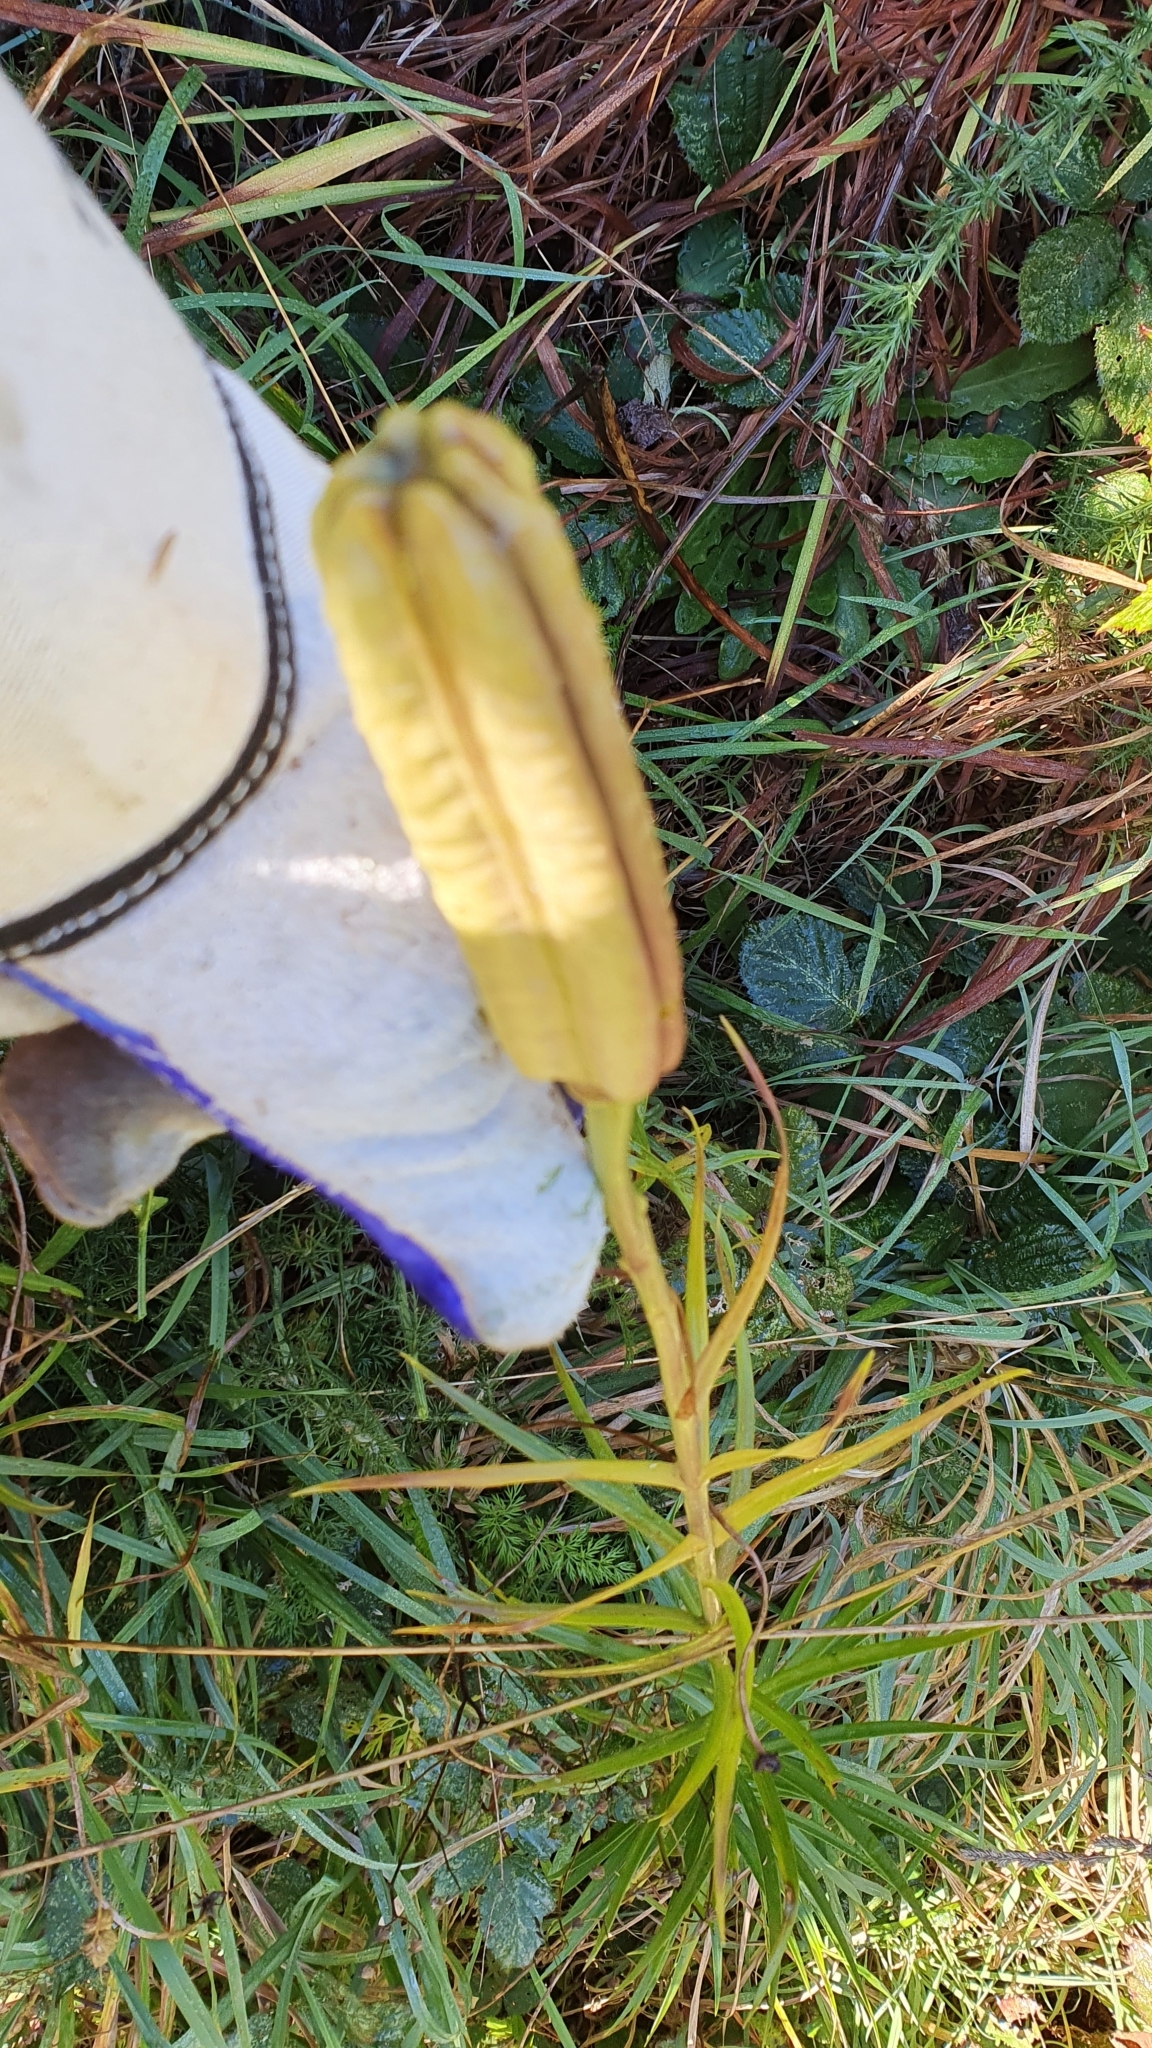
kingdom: Plantae
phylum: Tracheophyta
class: Liliopsida
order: Liliales
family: Liliaceae
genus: Lilium
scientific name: Lilium formosanum
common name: Formosa lily
